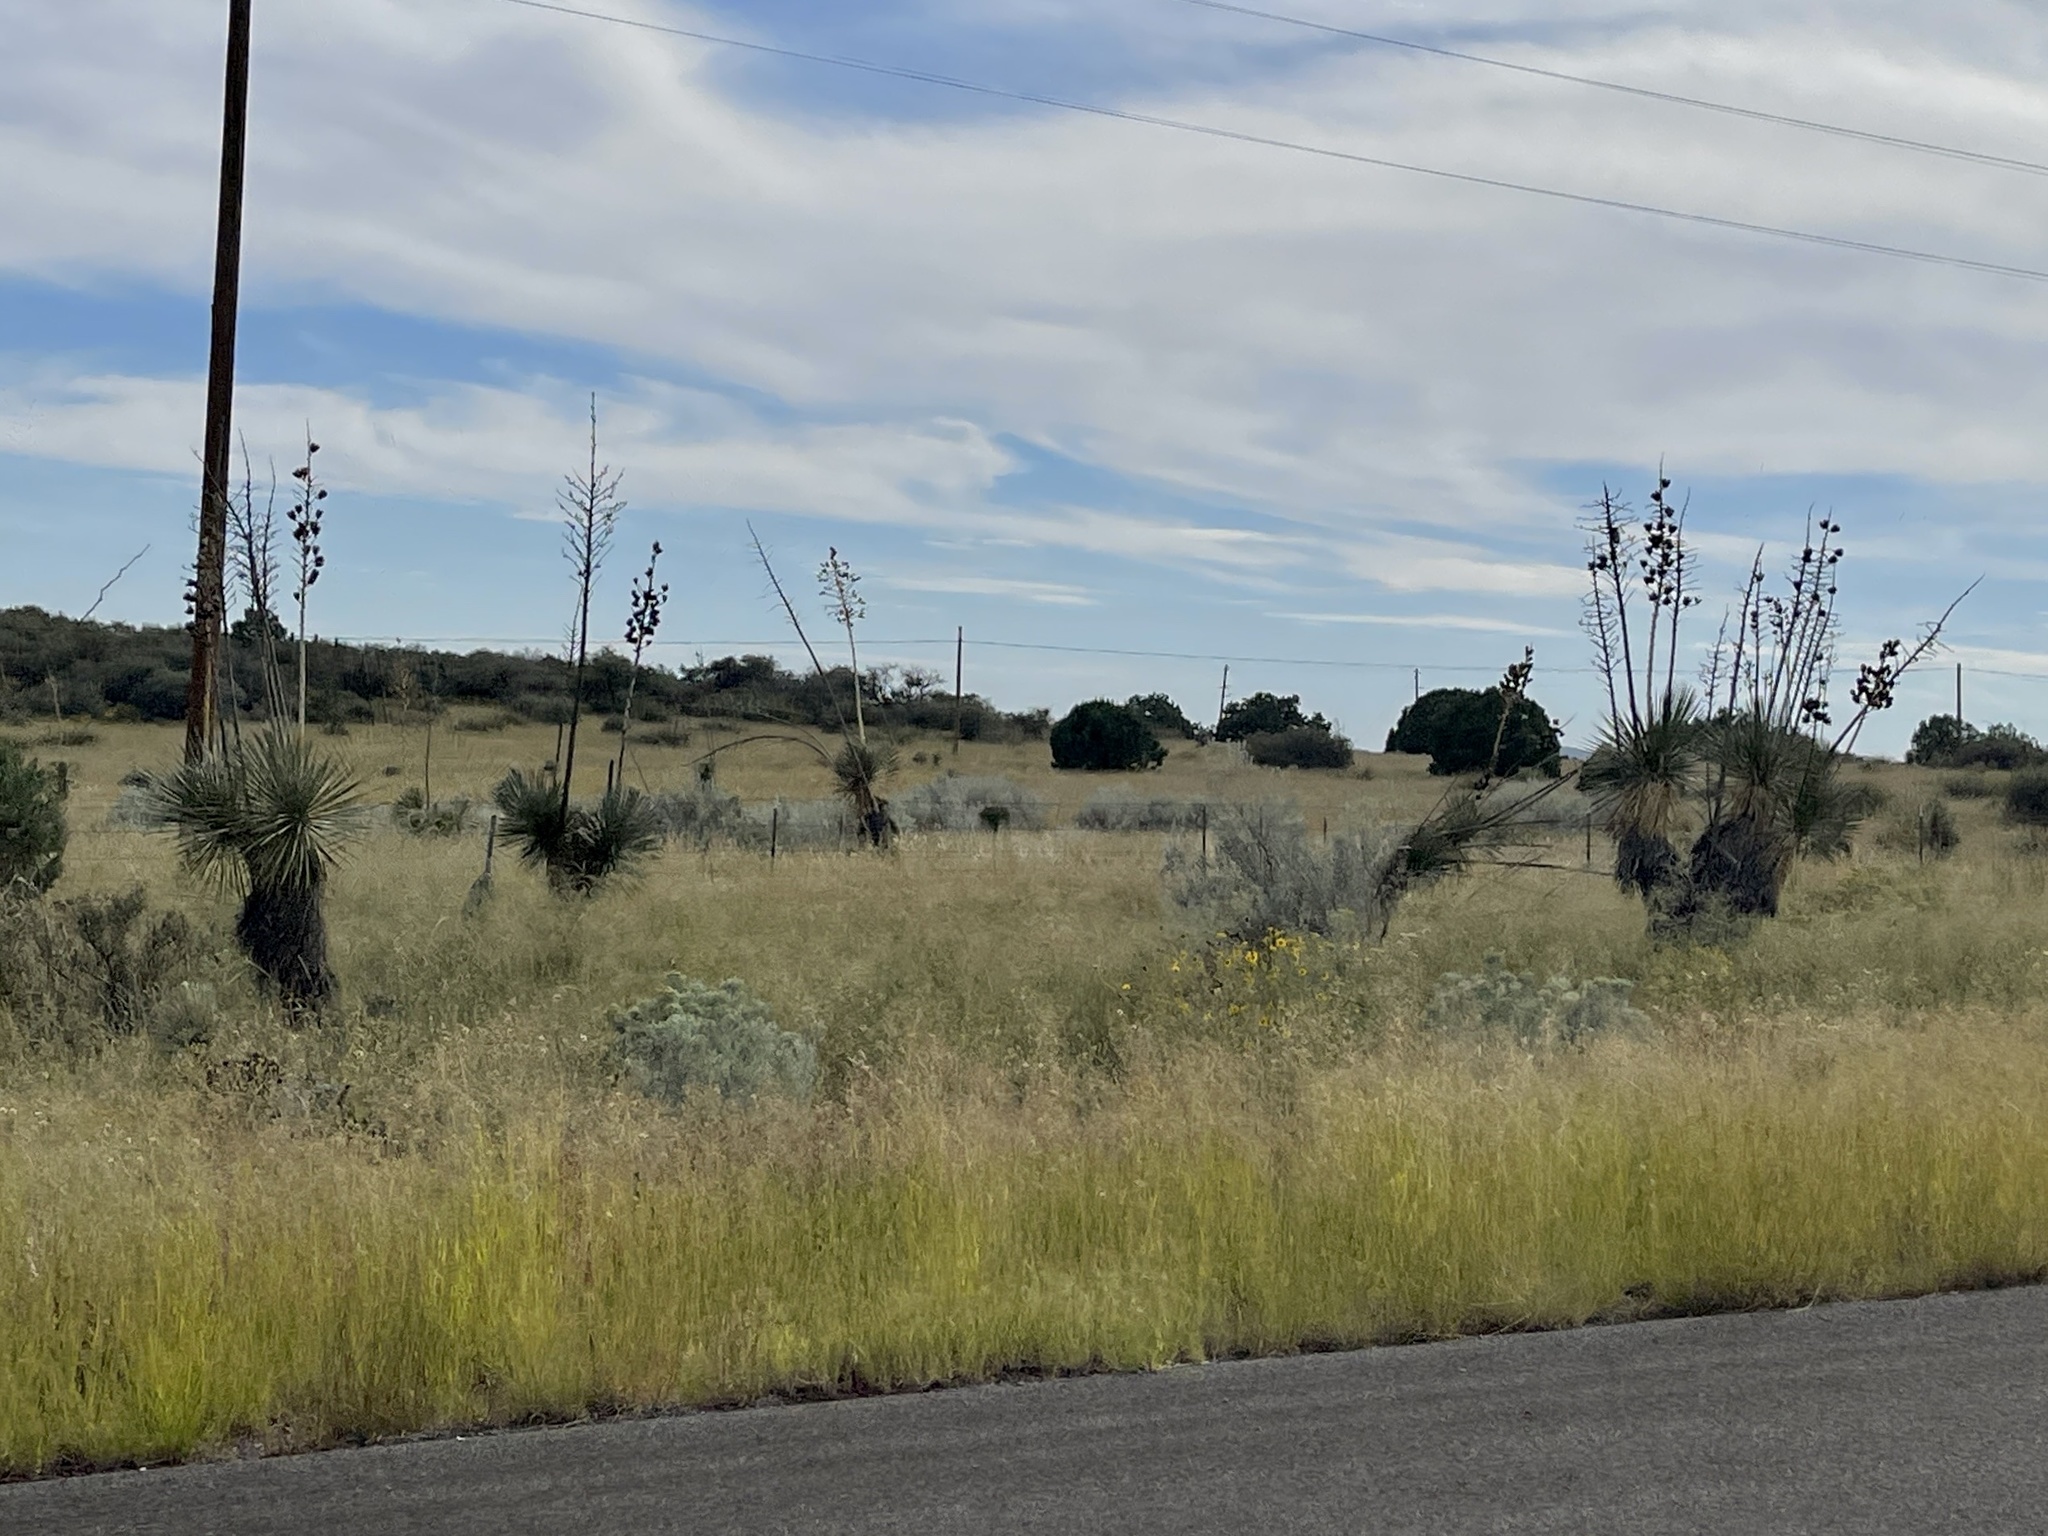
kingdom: Plantae
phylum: Tracheophyta
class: Liliopsida
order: Asparagales
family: Asparagaceae
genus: Yucca
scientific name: Yucca elata
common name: Palmella
